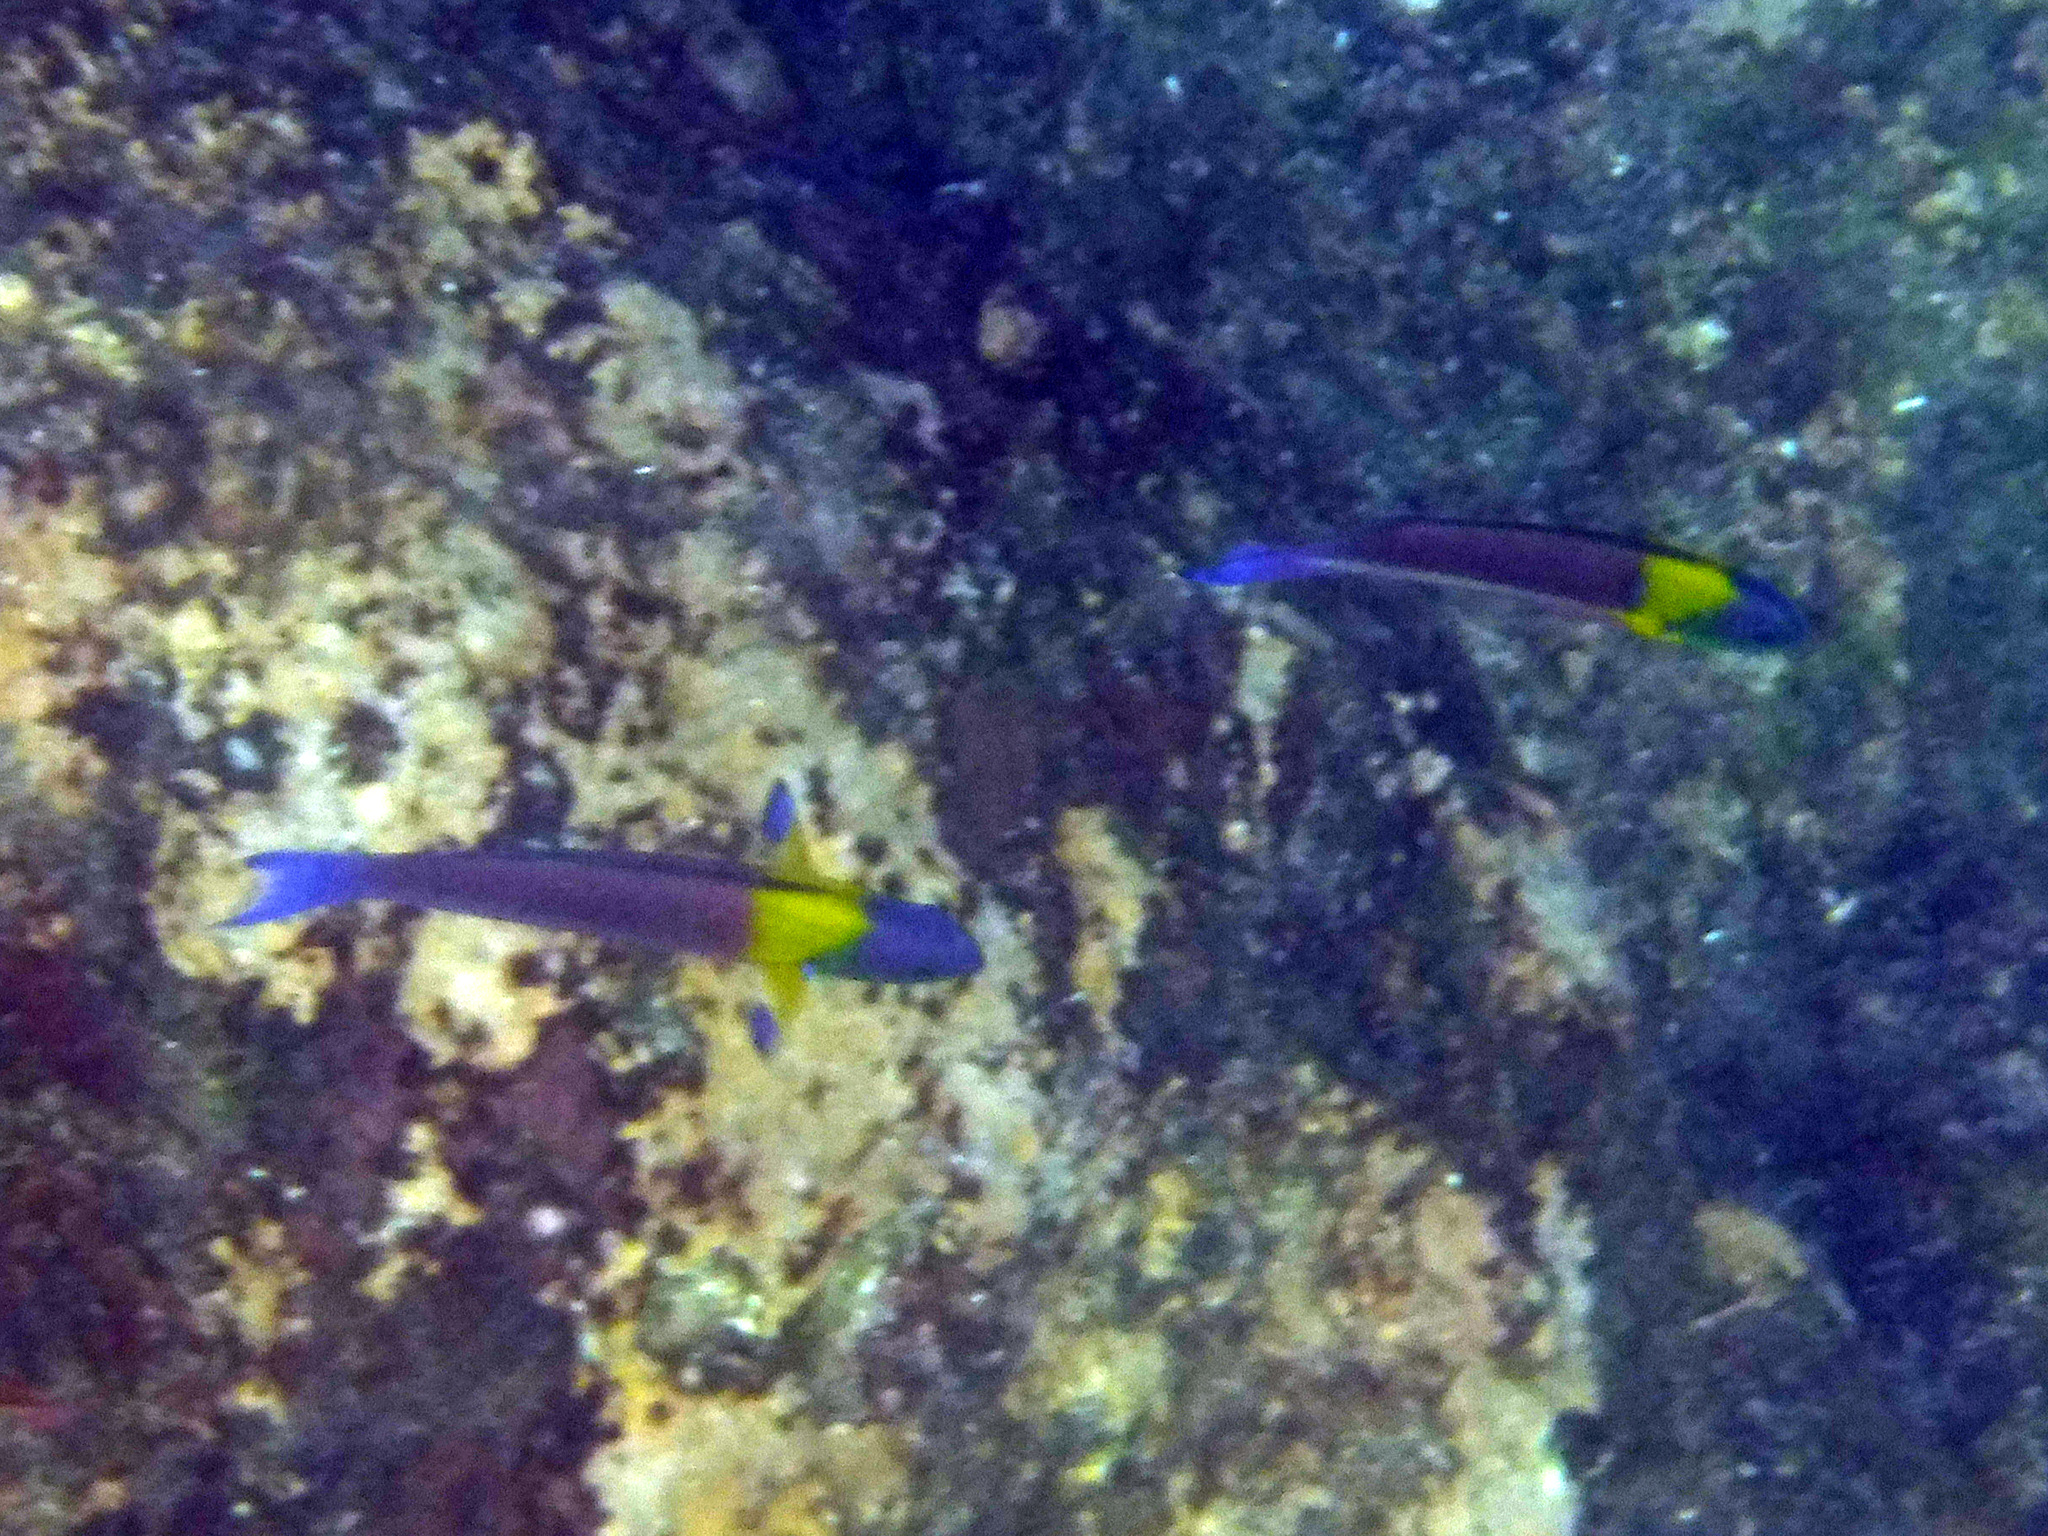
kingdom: Animalia
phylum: Chordata
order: Perciformes
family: Labridae
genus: Thalassoma
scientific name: Thalassoma lucasanum
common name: Cortez rainbow wrasse
